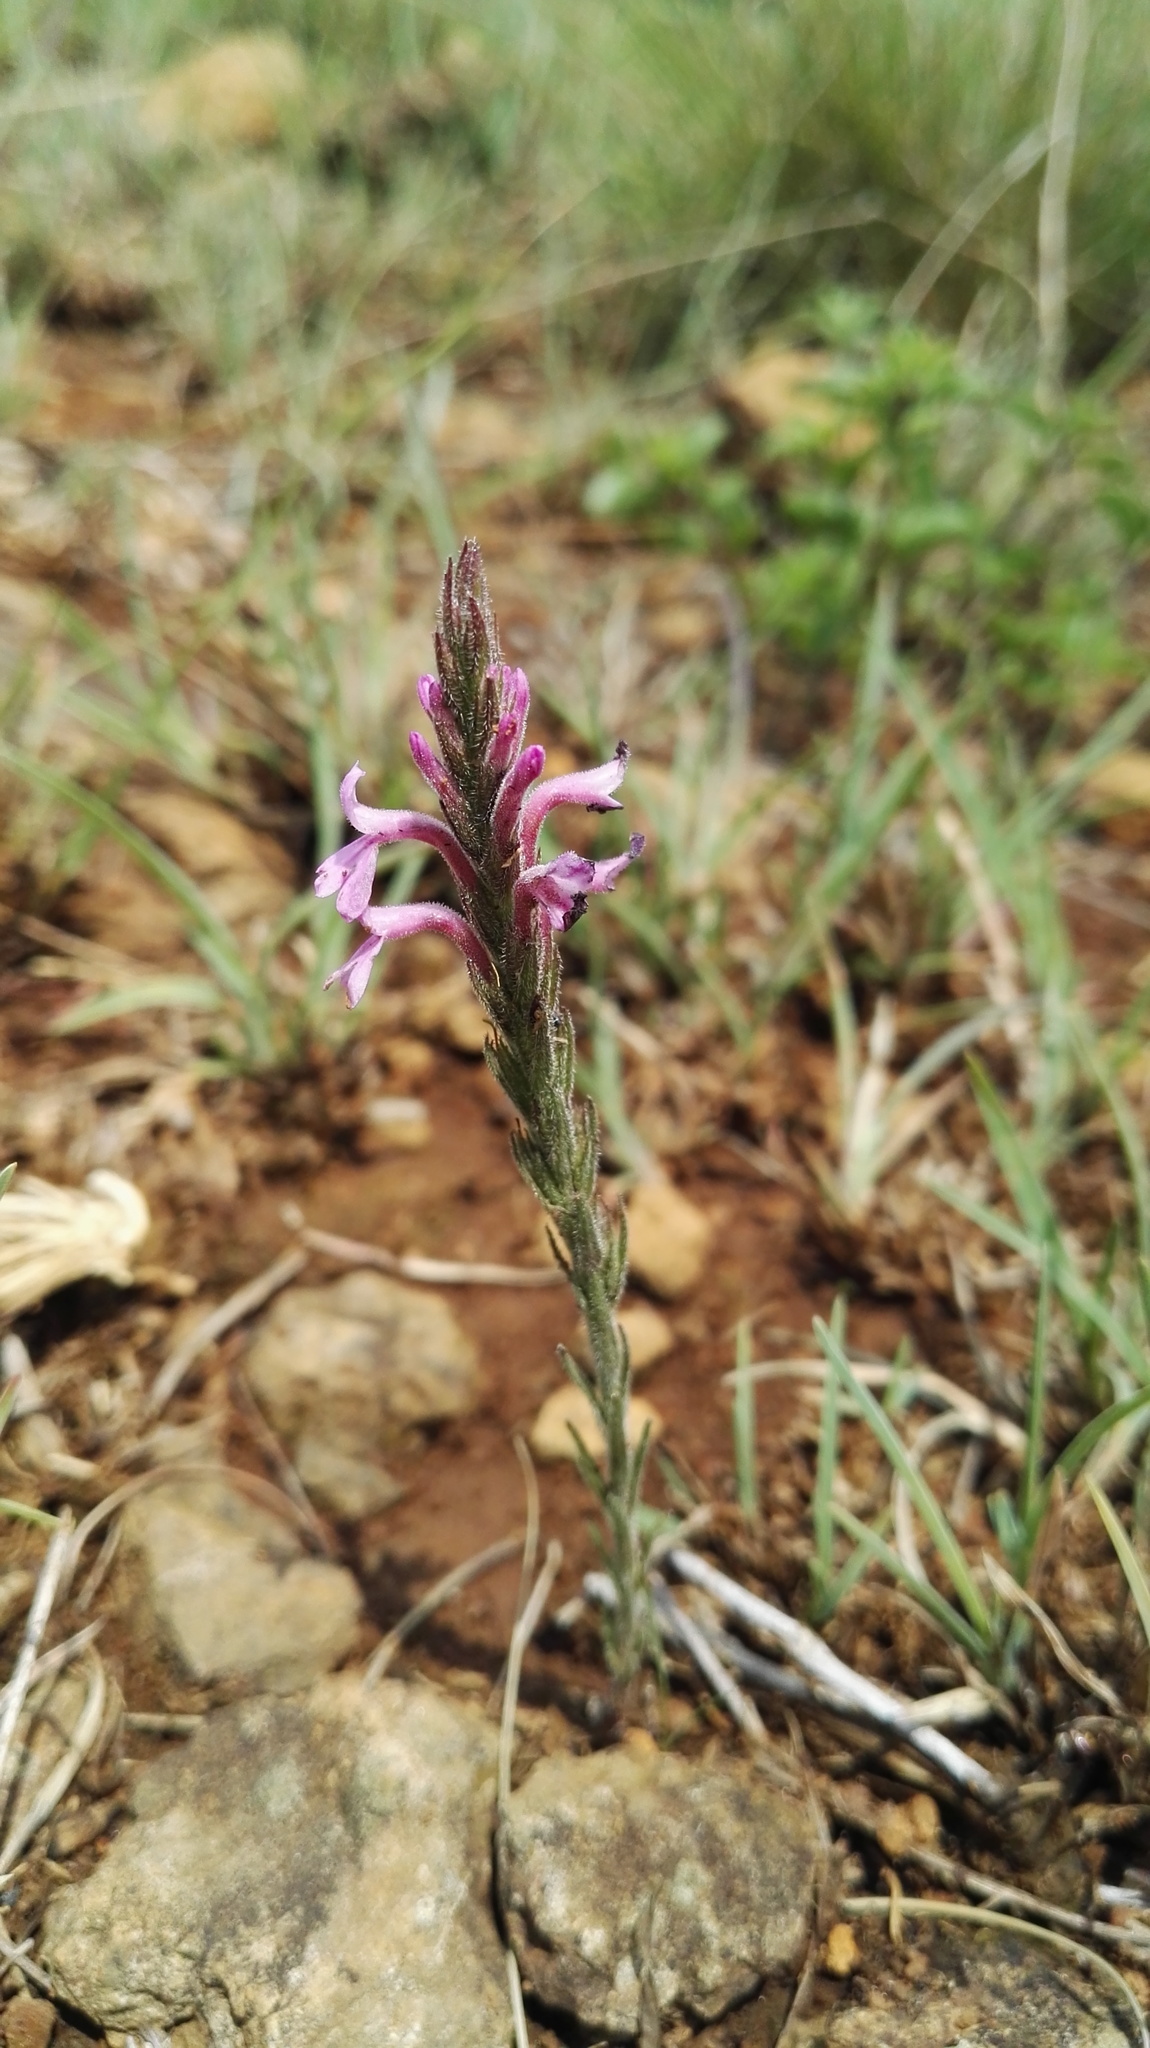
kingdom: Plantae
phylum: Tracheophyta
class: Magnoliopsida
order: Lamiales
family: Orobanchaceae
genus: Striga
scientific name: Striga bilabiata
